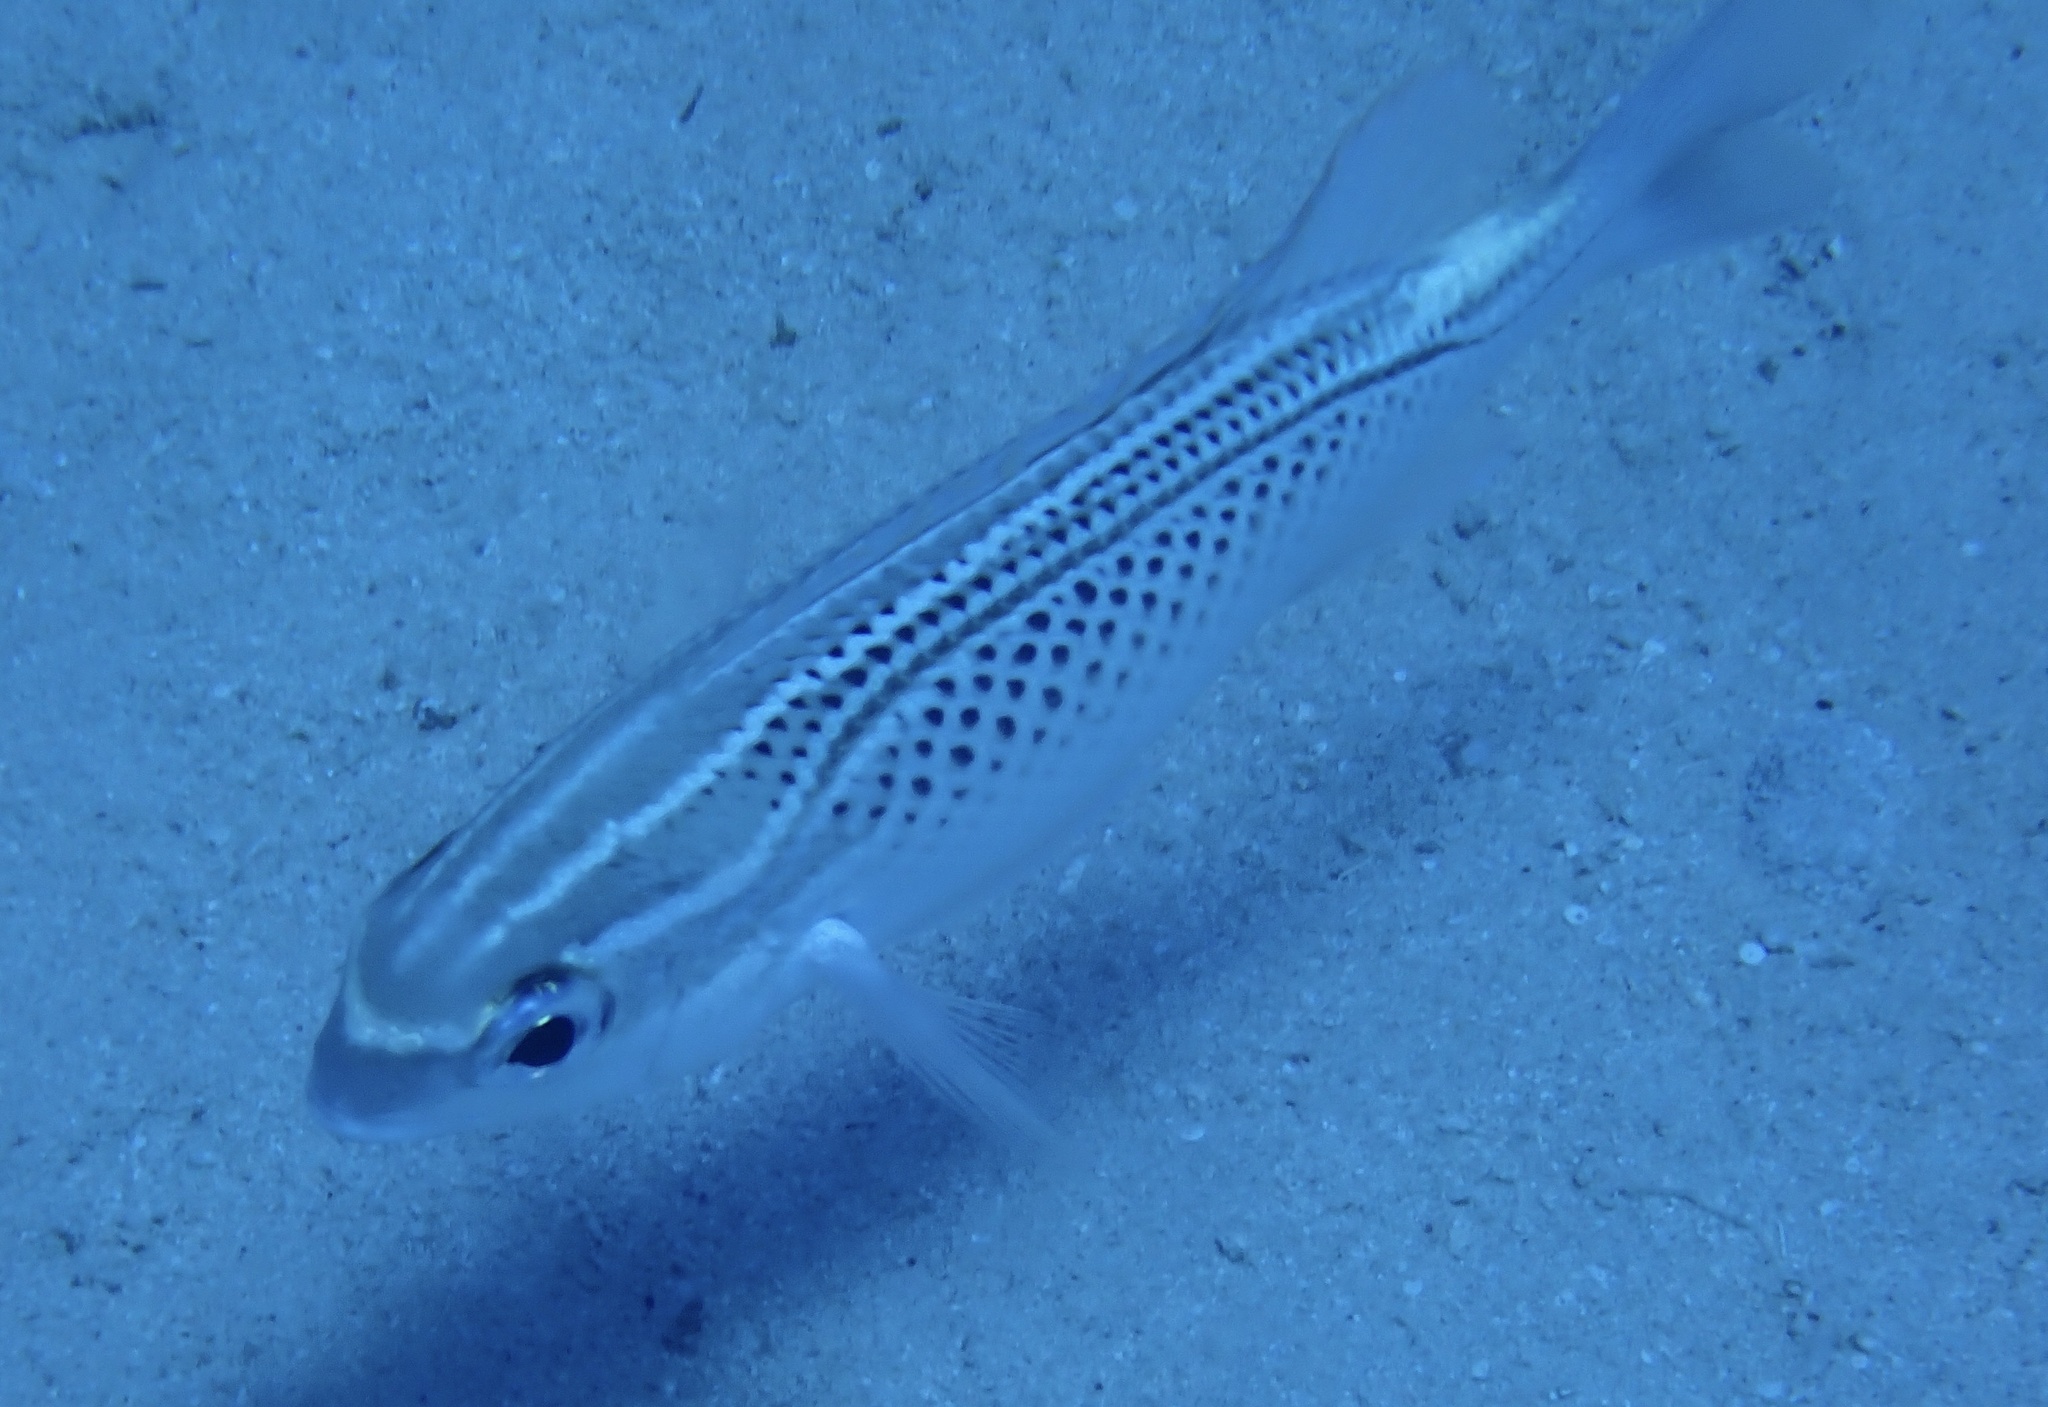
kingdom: Animalia
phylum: Chordata
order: Perciformes
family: Nemipteridae
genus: Scolopsis
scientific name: Scolopsis ghanam
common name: Arabian monocle bream
